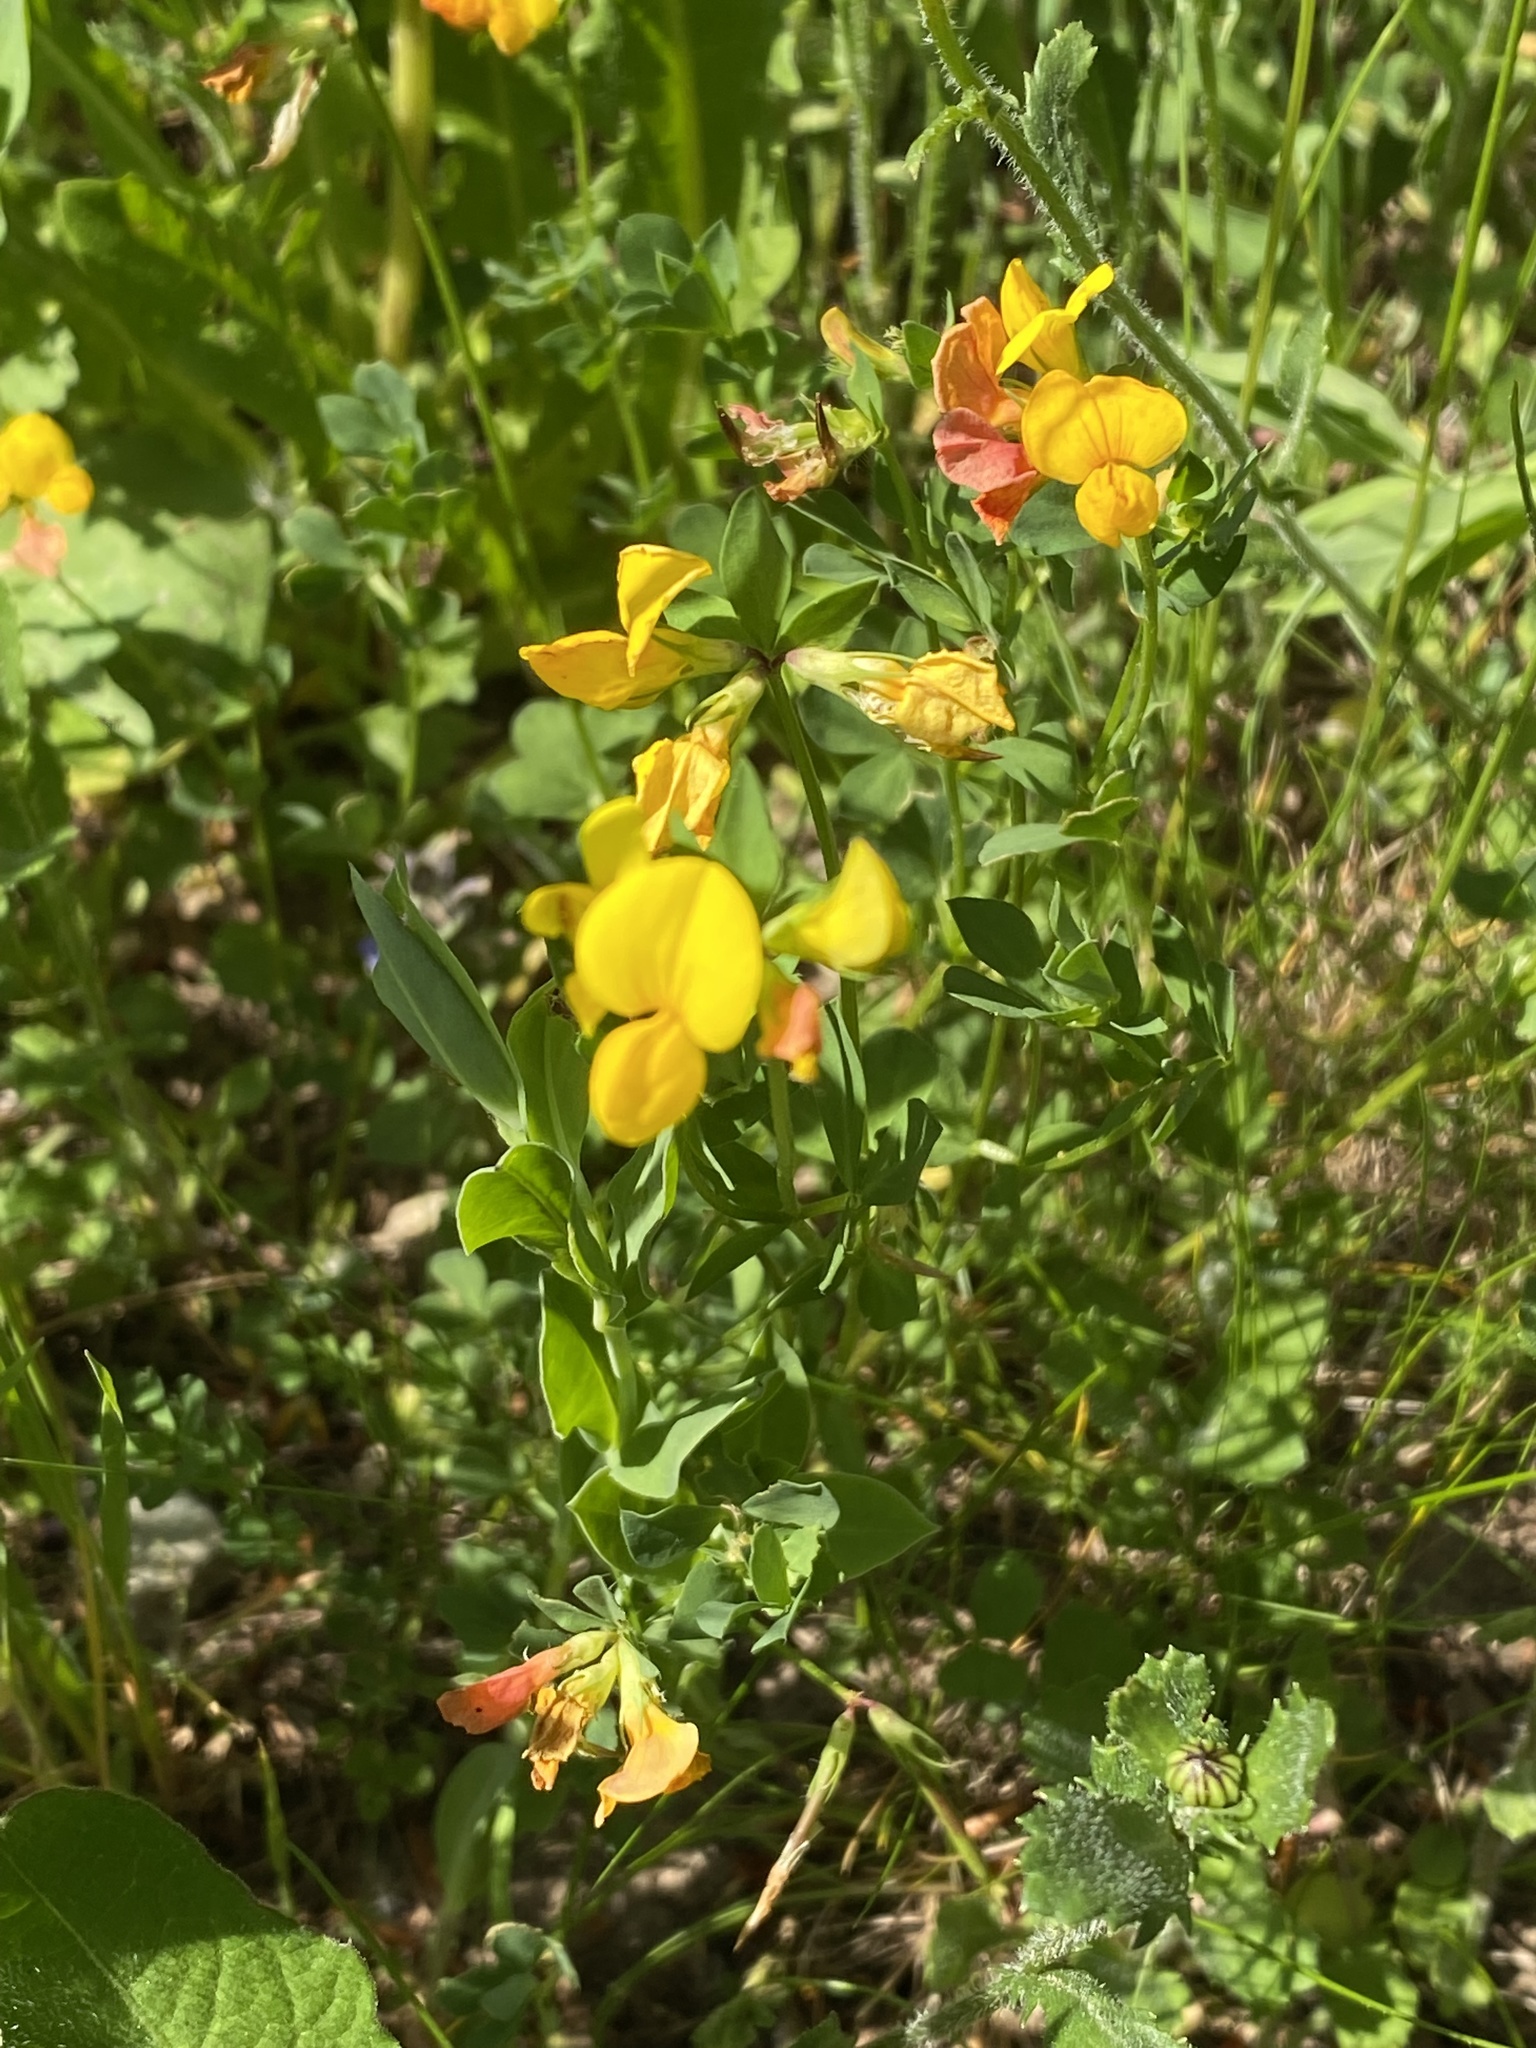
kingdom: Plantae
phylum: Tracheophyta
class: Magnoliopsida
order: Fabales
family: Fabaceae
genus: Lotus
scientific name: Lotus alpinus
